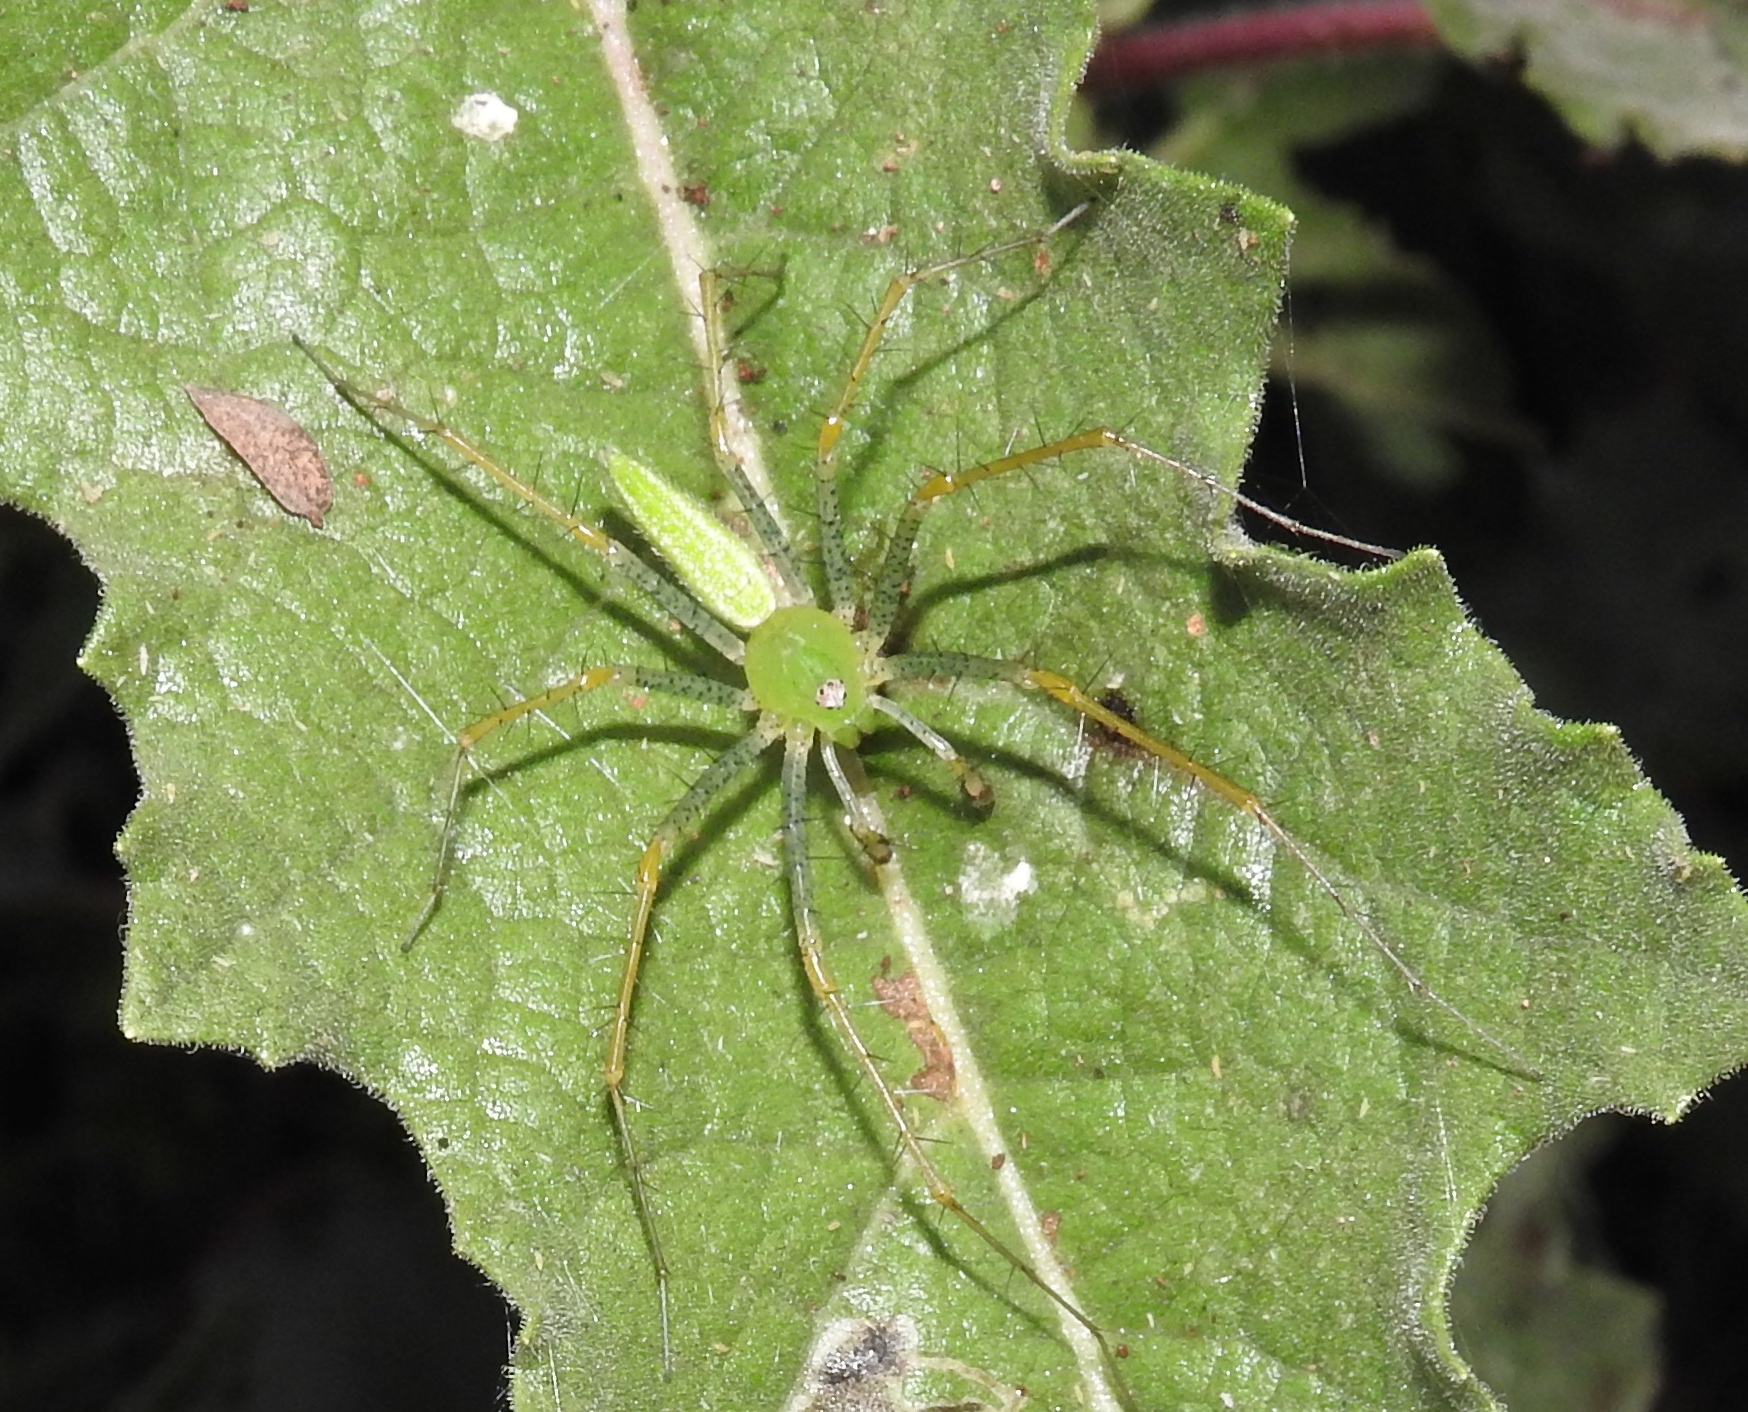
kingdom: Animalia
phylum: Arthropoda
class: Arachnida
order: Araneae
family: Oxyopidae
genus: Peucetia
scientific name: Peucetia
